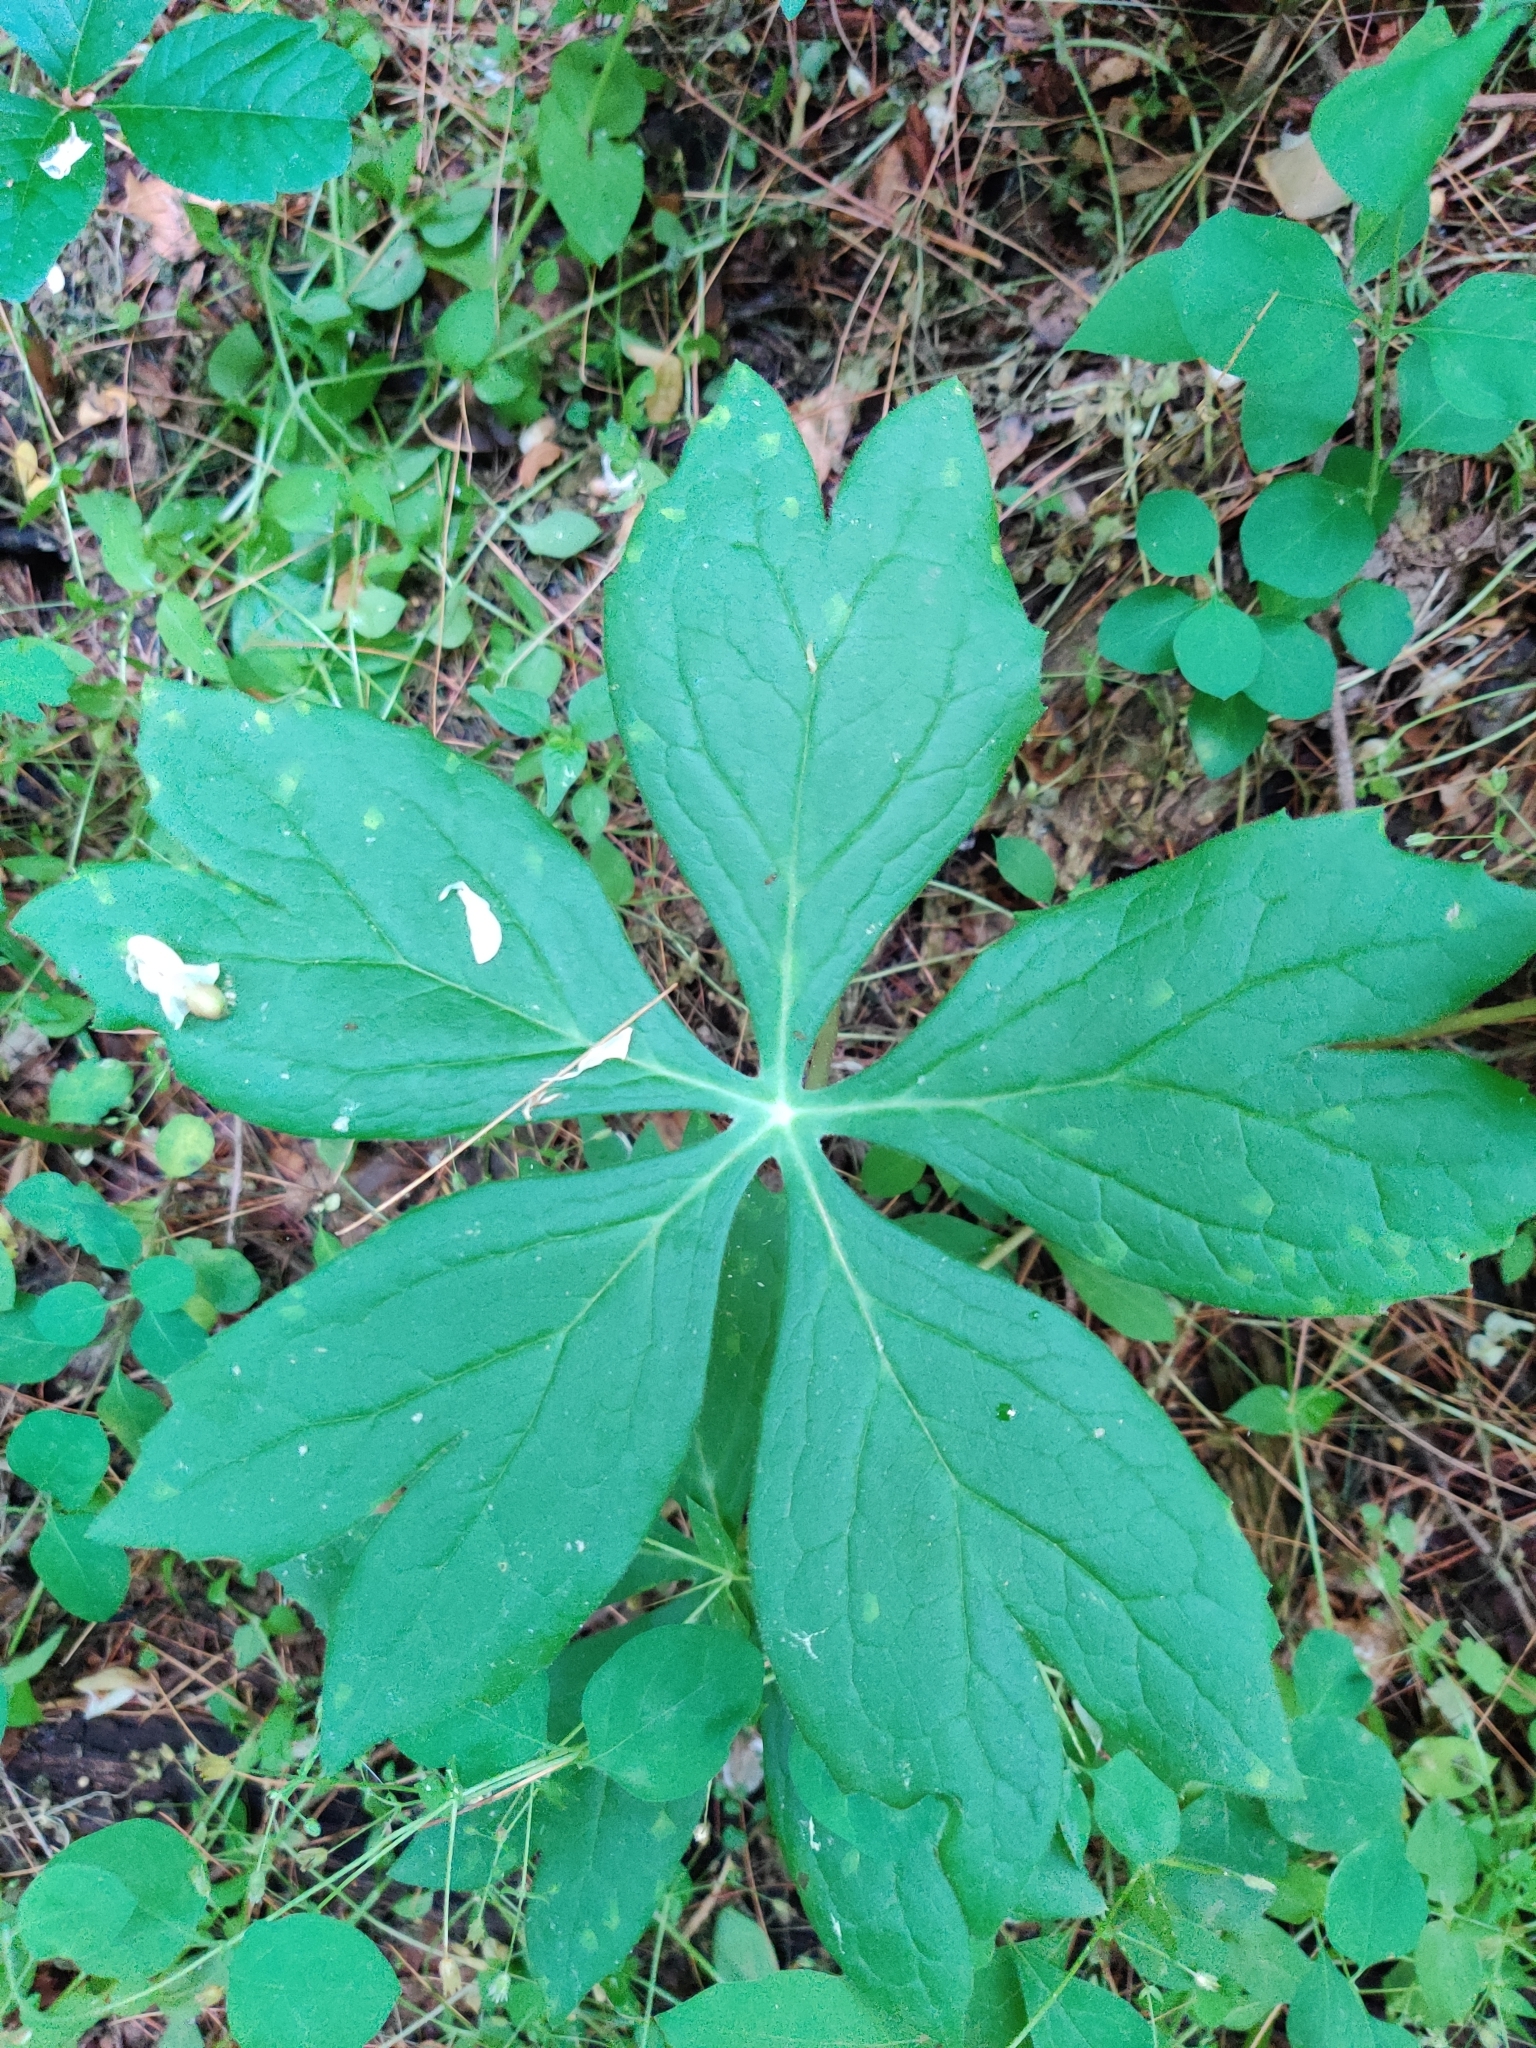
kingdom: Plantae
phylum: Tracheophyta
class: Magnoliopsida
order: Ranunculales
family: Berberidaceae
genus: Podophyllum
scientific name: Podophyllum peltatum
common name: Wild mandrake
